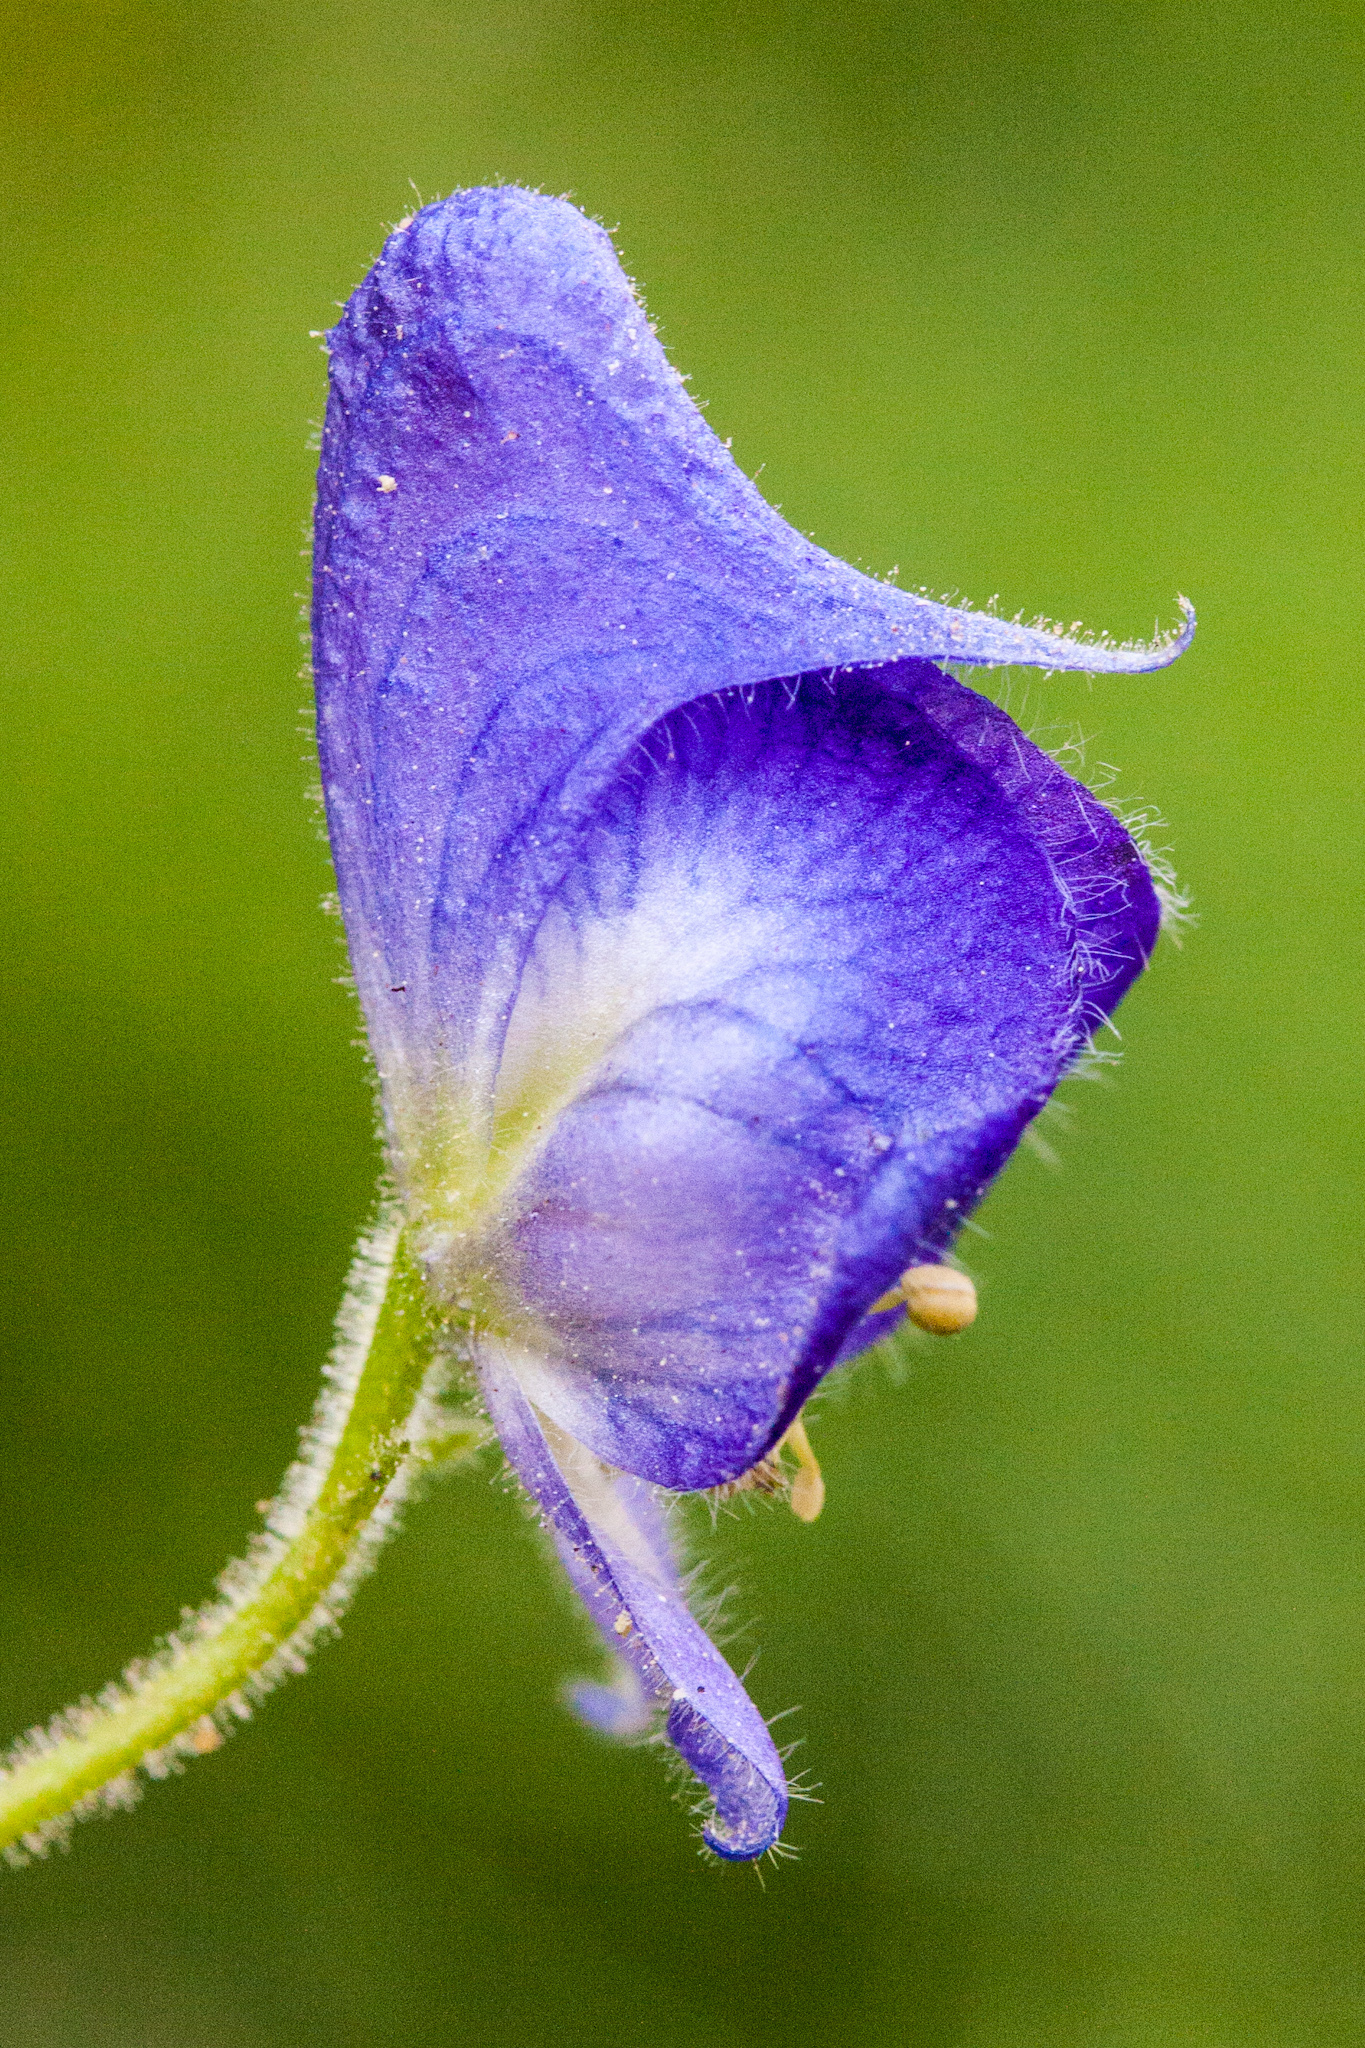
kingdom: Plantae
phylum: Tracheophyta
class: Magnoliopsida
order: Ranunculales
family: Ranunculaceae
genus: Aconitum
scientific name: Aconitum columbianum
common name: Columbia aconite
